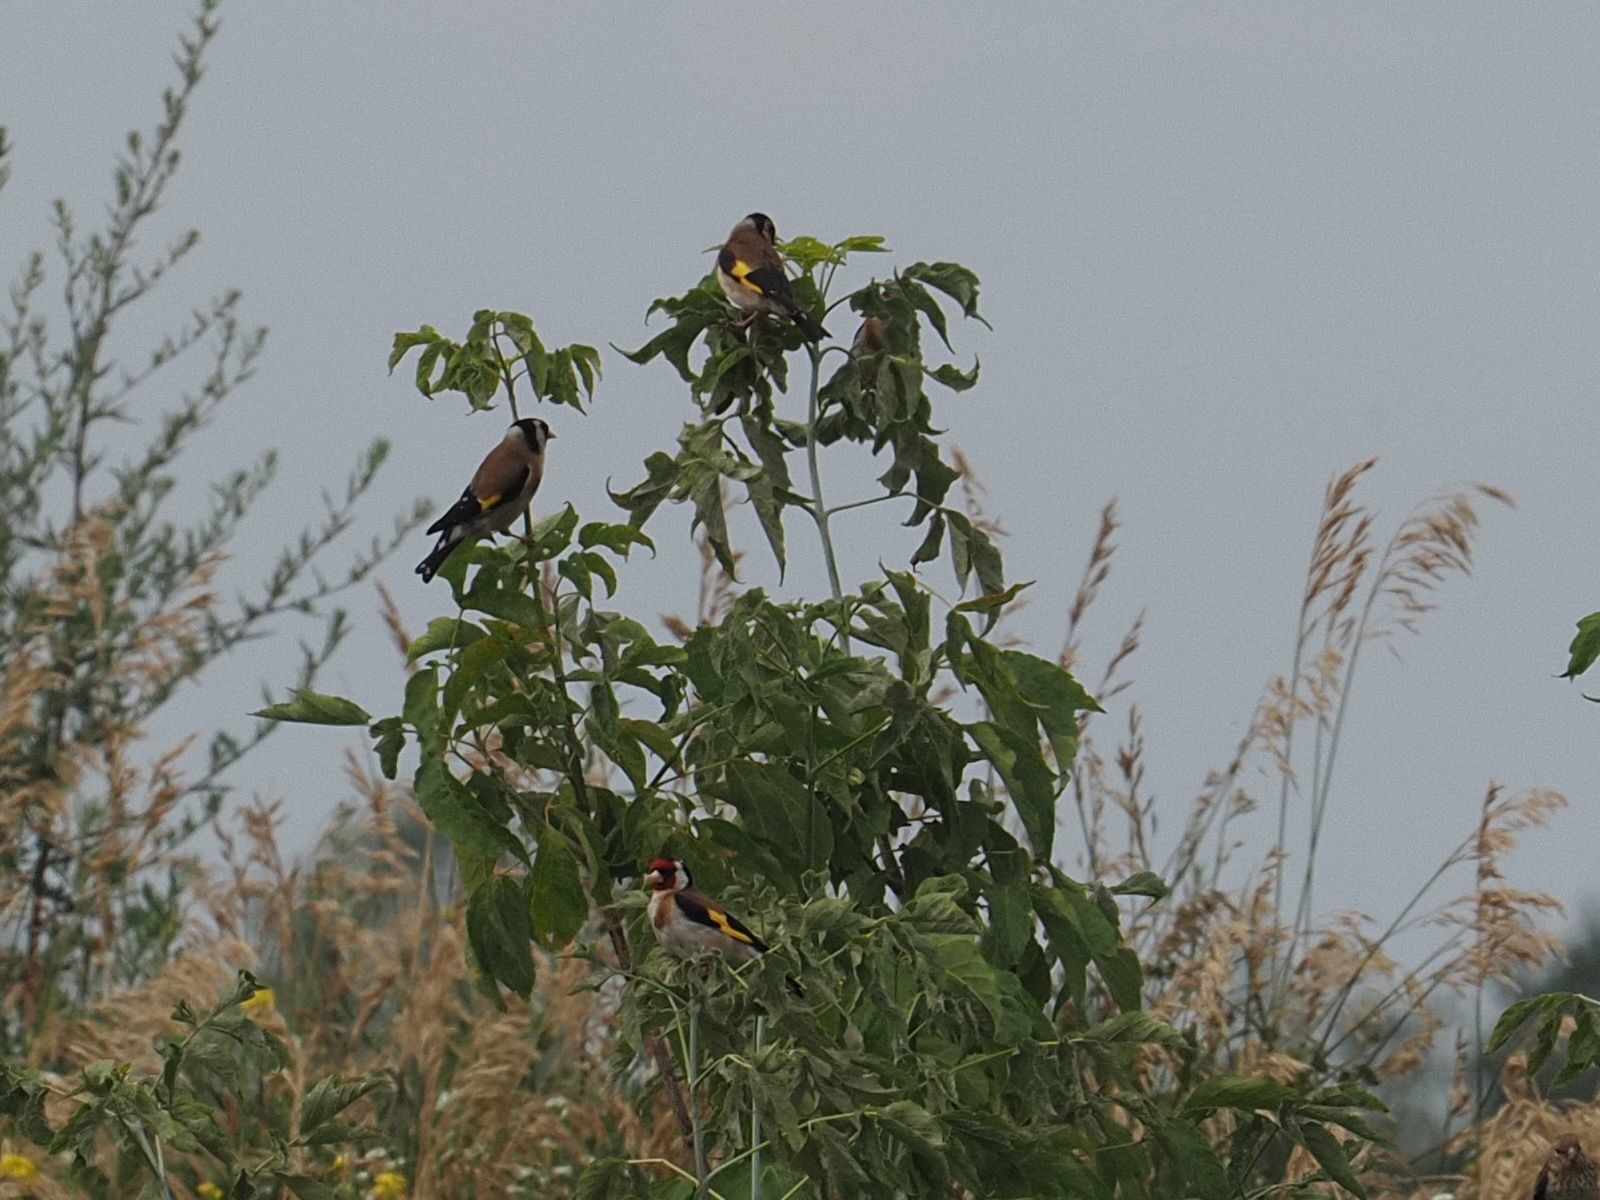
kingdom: Animalia
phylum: Chordata
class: Aves
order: Passeriformes
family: Fringillidae
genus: Carduelis
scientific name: Carduelis carduelis
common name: European goldfinch
